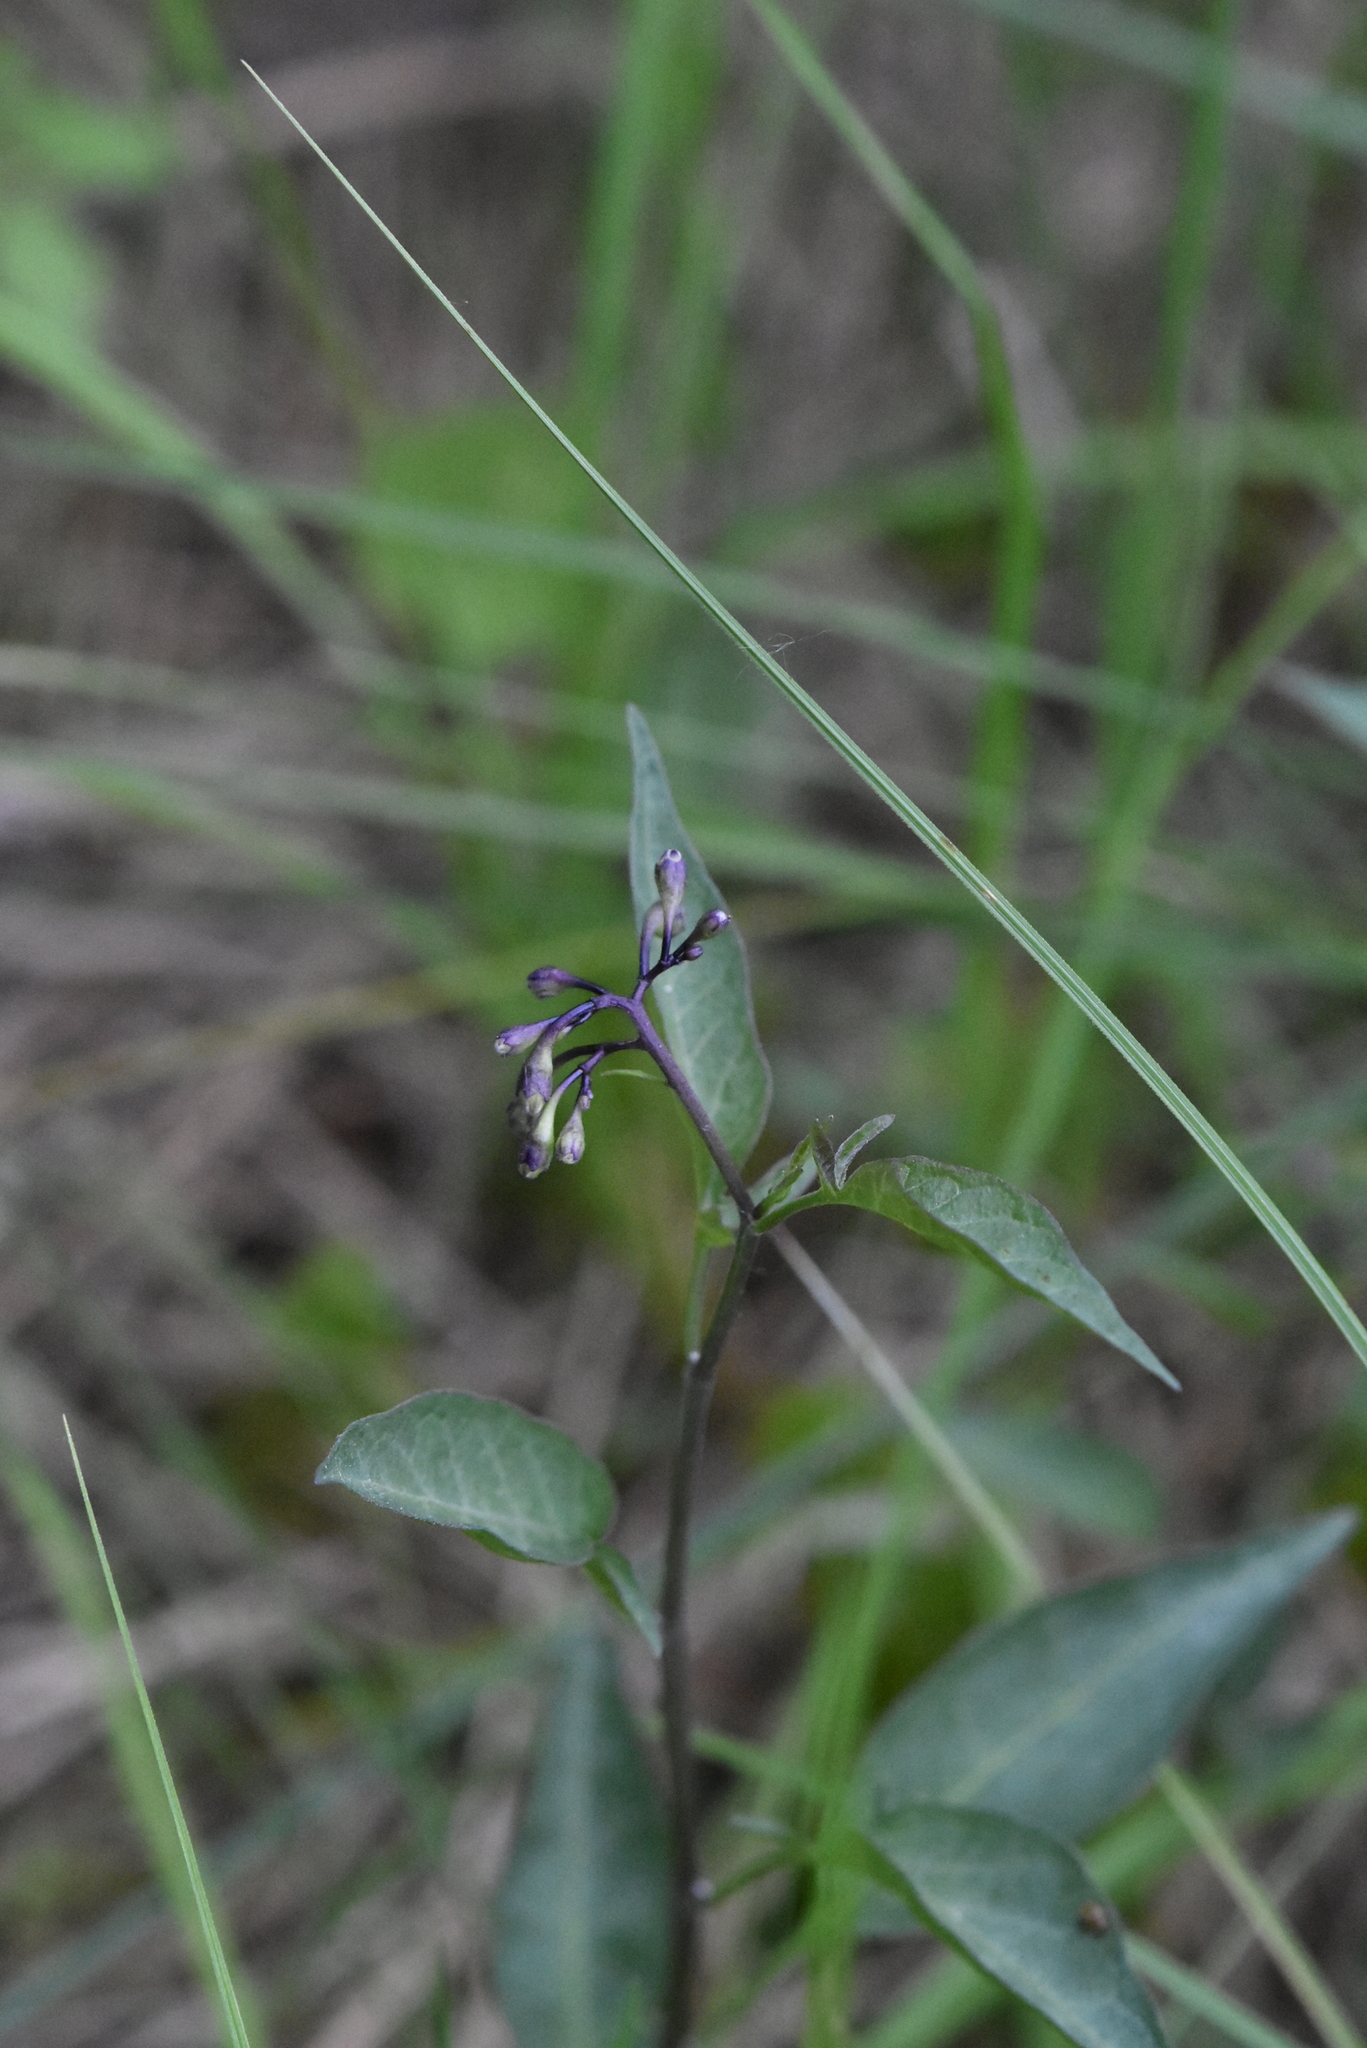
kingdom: Plantae
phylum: Tracheophyta
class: Magnoliopsida
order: Solanales
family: Solanaceae
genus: Solanum
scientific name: Solanum dulcamara
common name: Climbing nightshade
